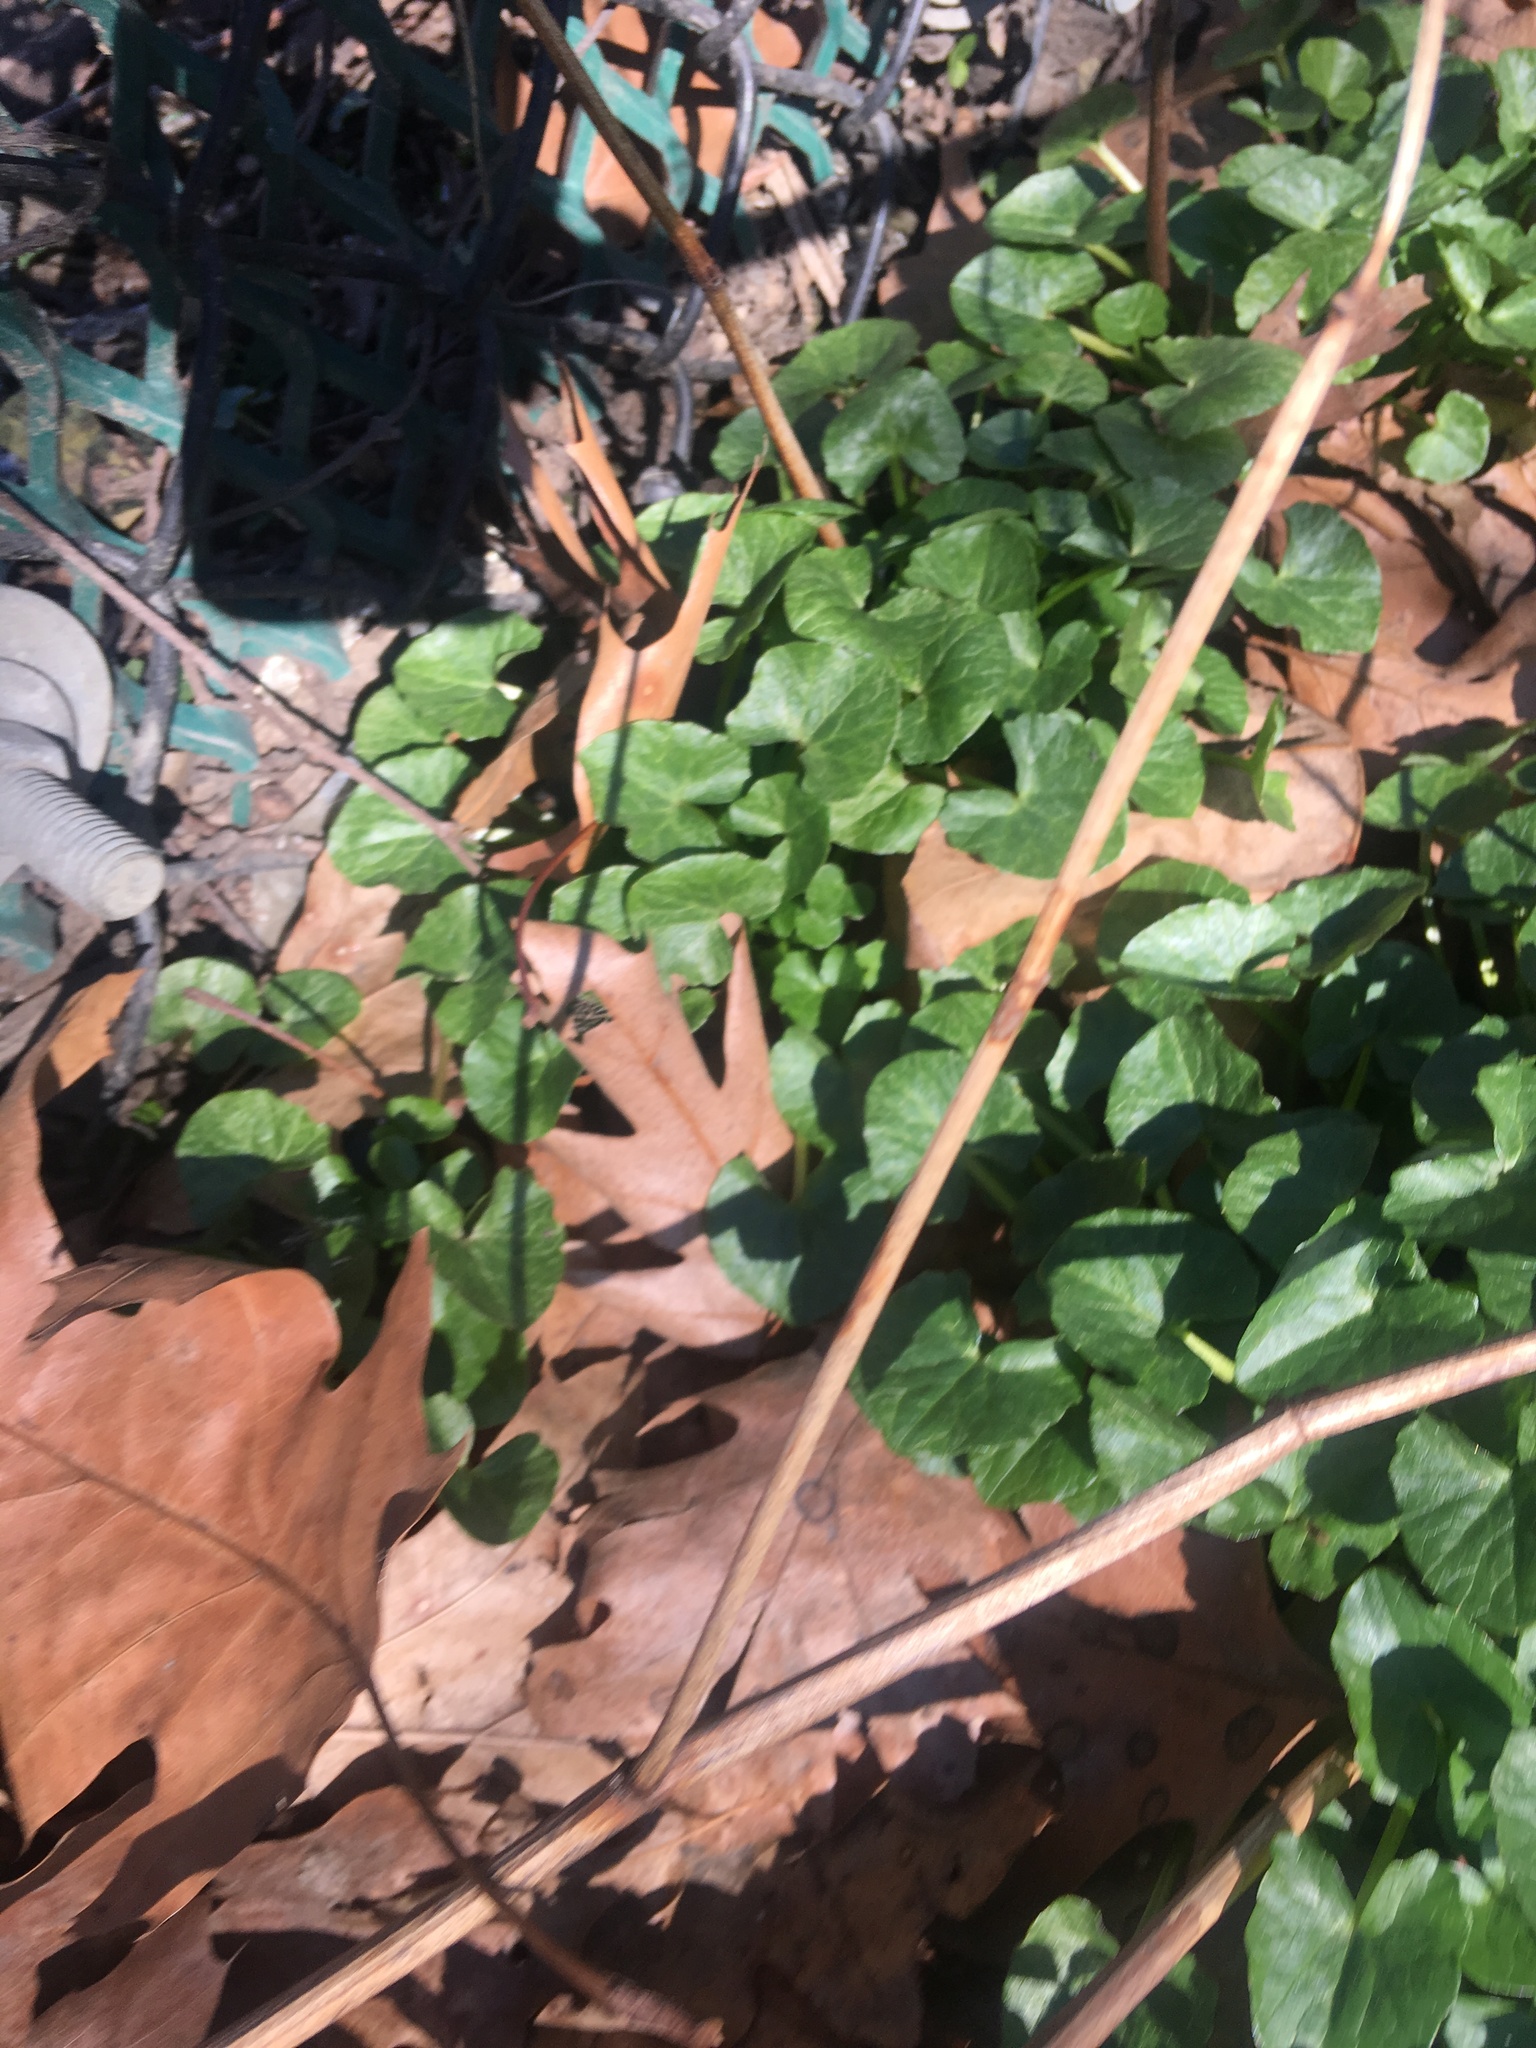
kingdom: Plantae
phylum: Tracheophyta
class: Magnoliopsida
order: Ranunculales
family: Ranunculaceae
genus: Ficaria
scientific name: Ficaria verna
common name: Lesser celandine
